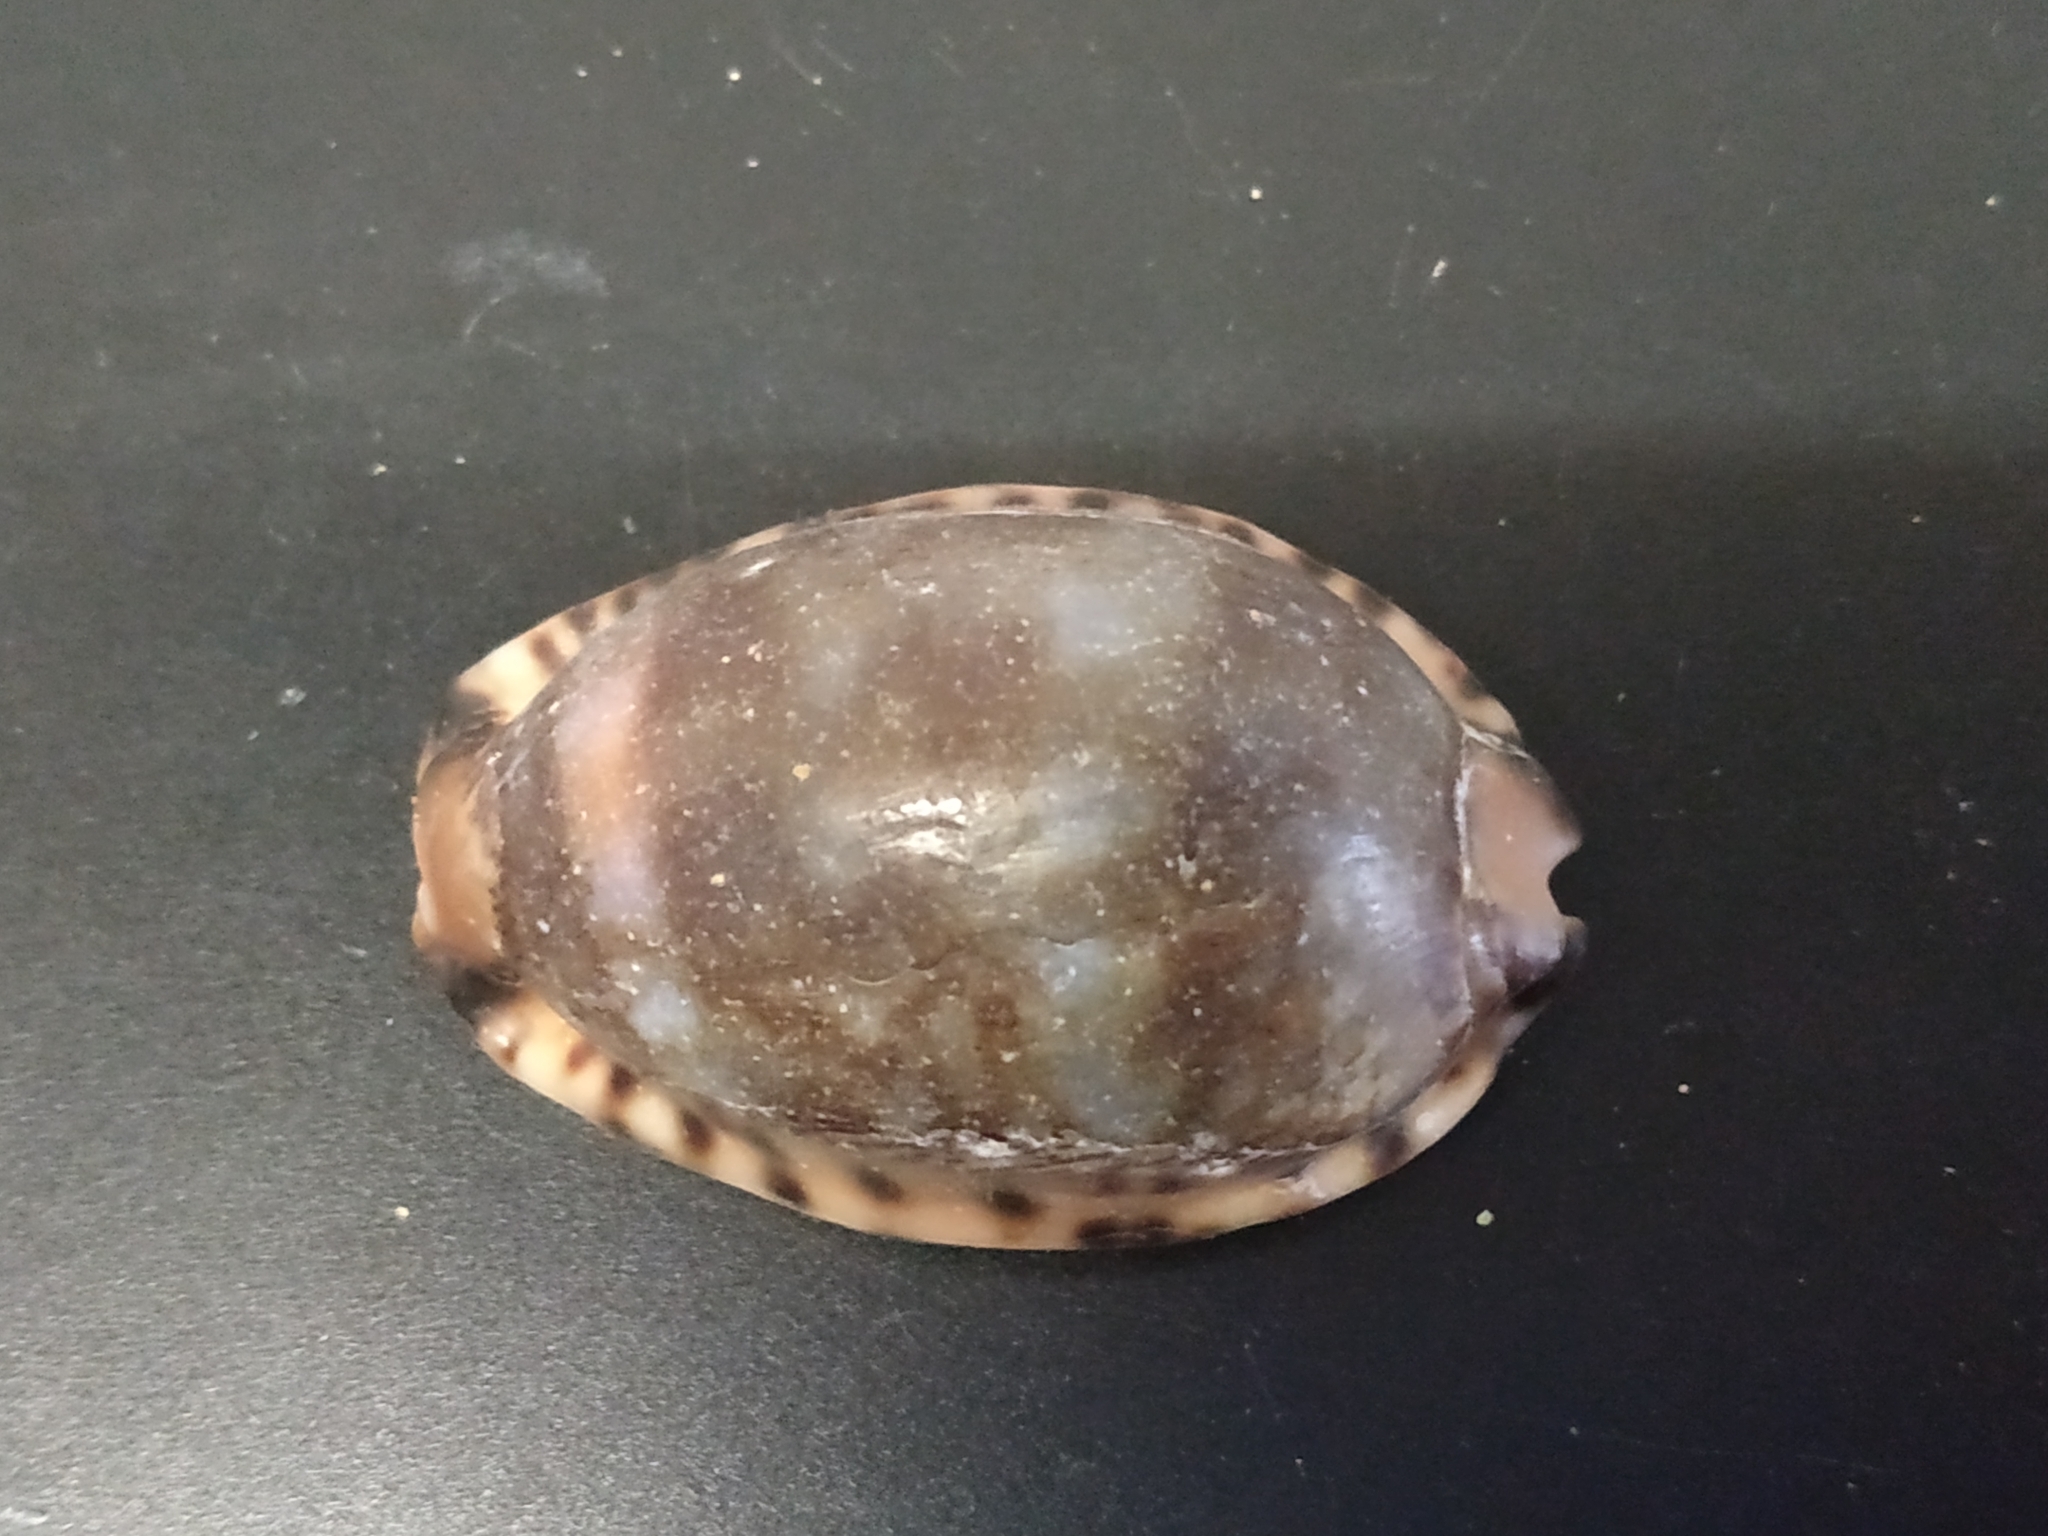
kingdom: Animalia
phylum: Mollusca
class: Gastropoda
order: Littorinimorpha
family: Cypraeidae
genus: Mauritia
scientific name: Mauritia arabica
